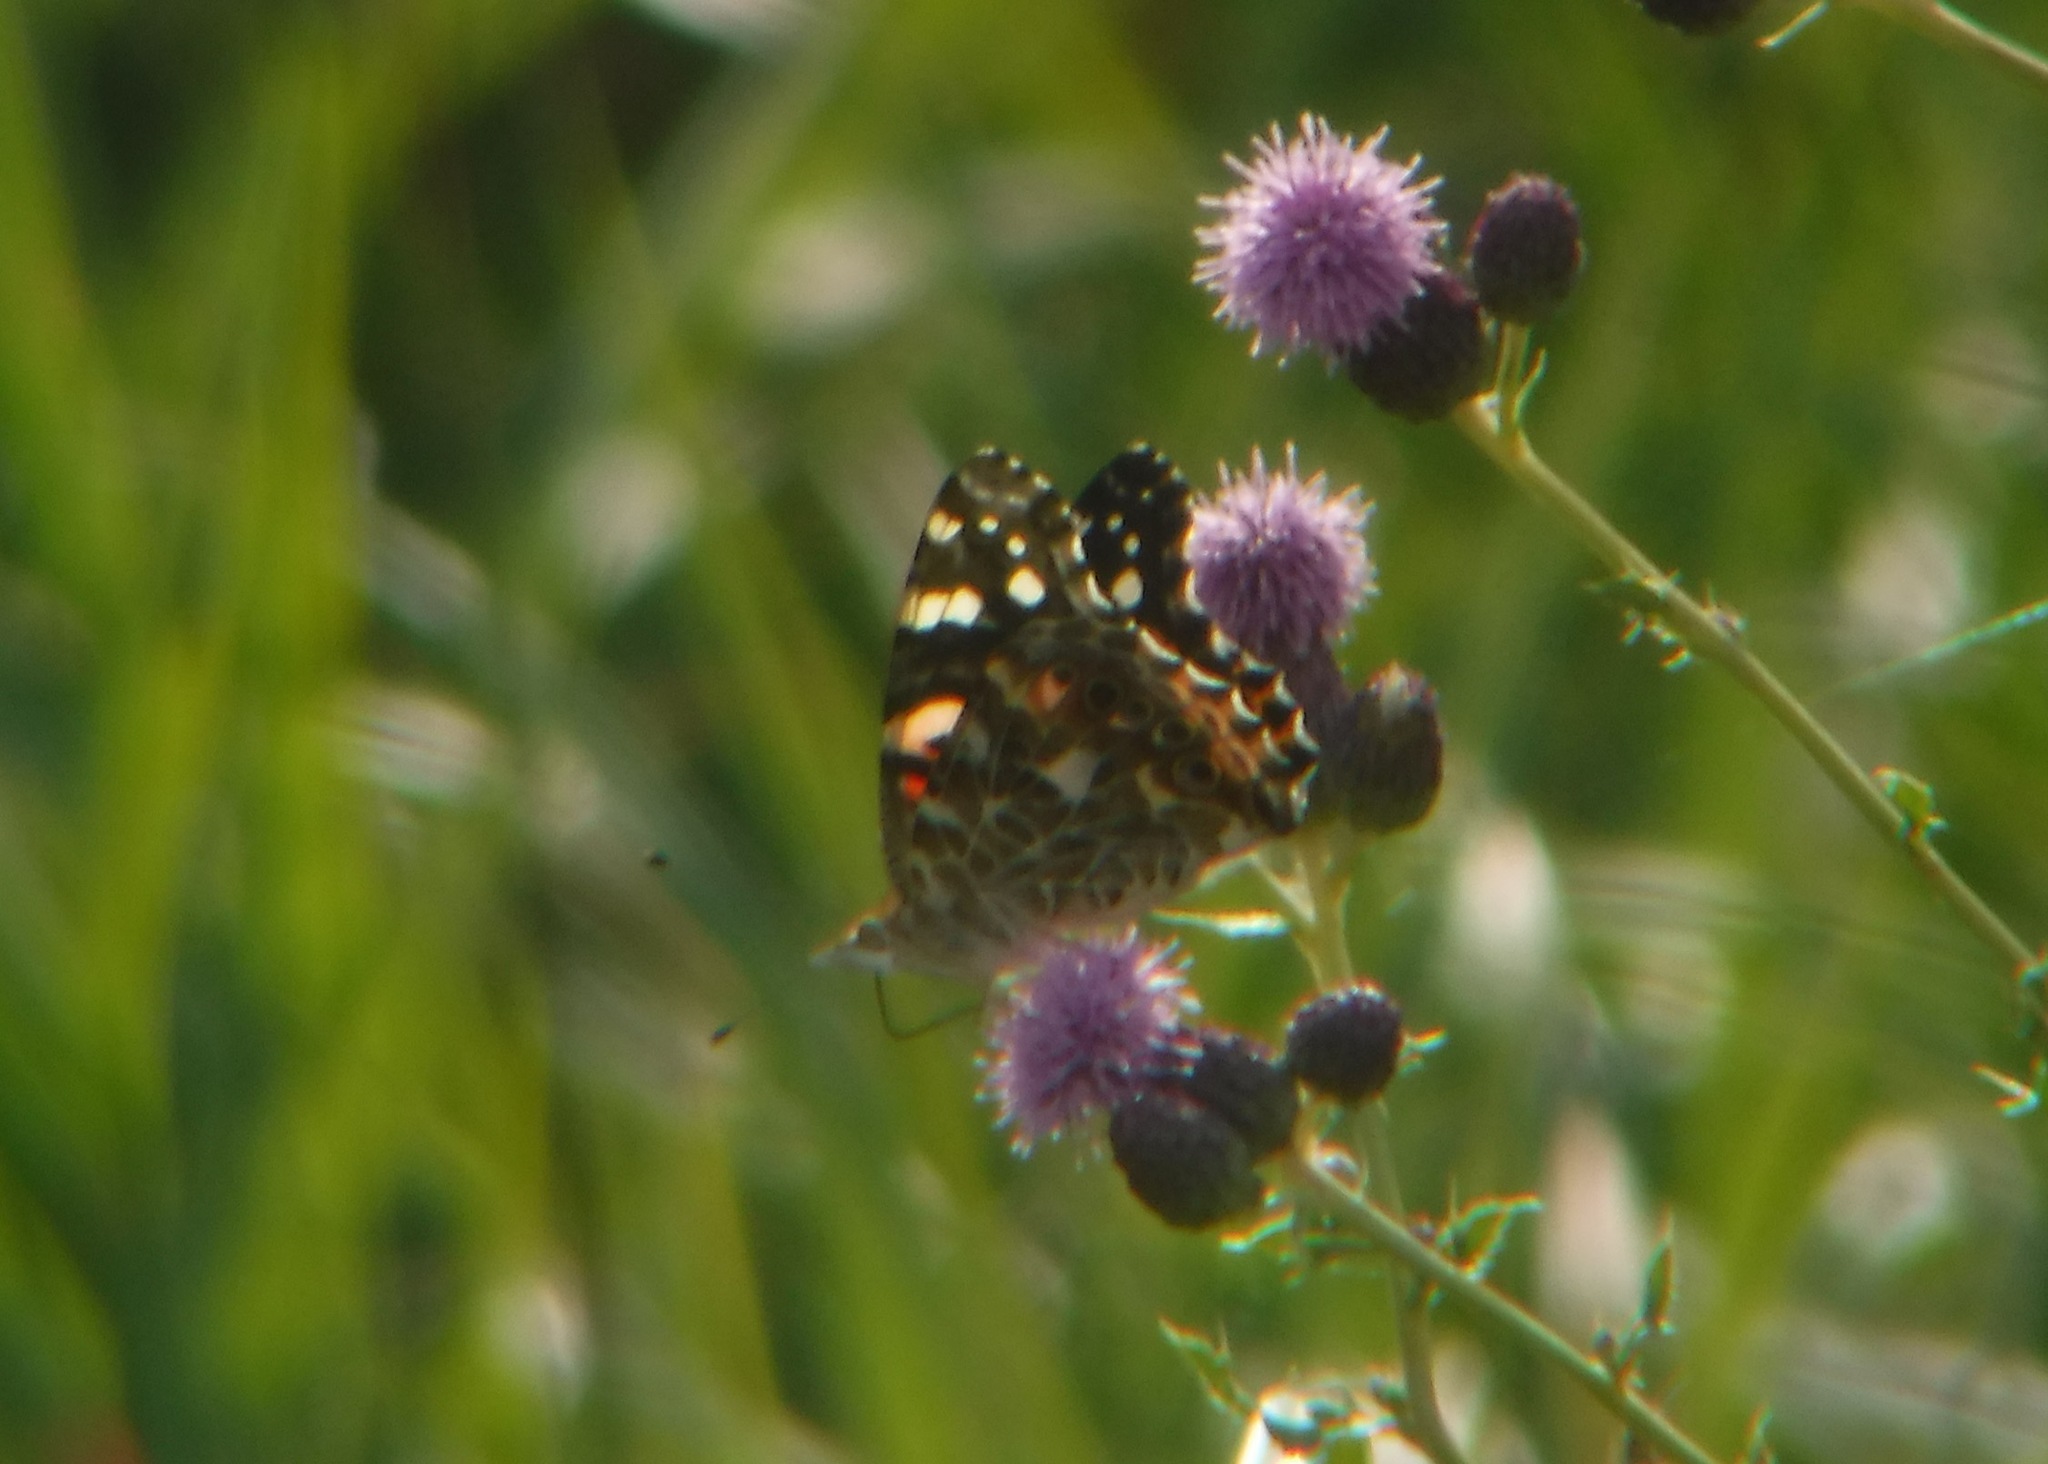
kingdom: Animalia
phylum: Arthropoda
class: Insecta
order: Lepidoptera
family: Nymphalidae
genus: Vanessa
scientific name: Vanessa cardui
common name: Painted lady
